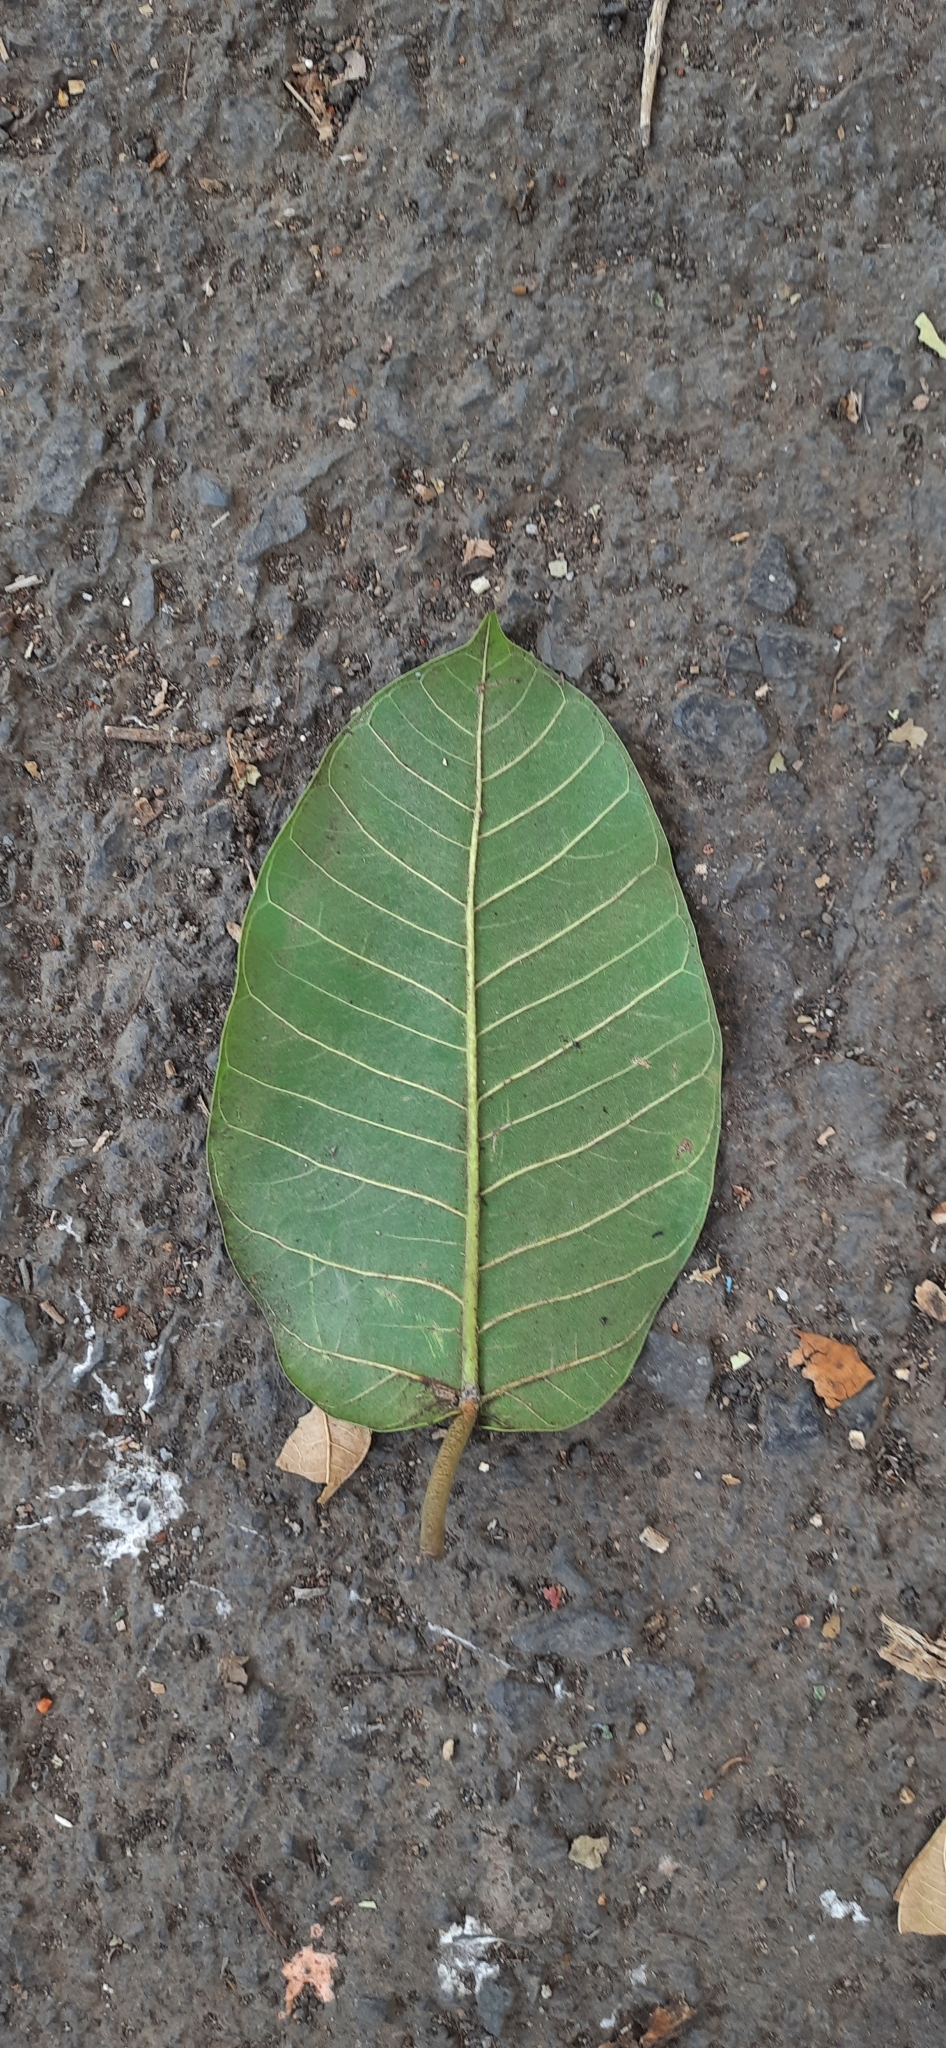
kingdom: Plantae
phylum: Tracheophyta
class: Magnoliopsida
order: Rosales
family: Moraceae
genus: Ficus
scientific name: Ficus drupacea
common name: Drupe fig
